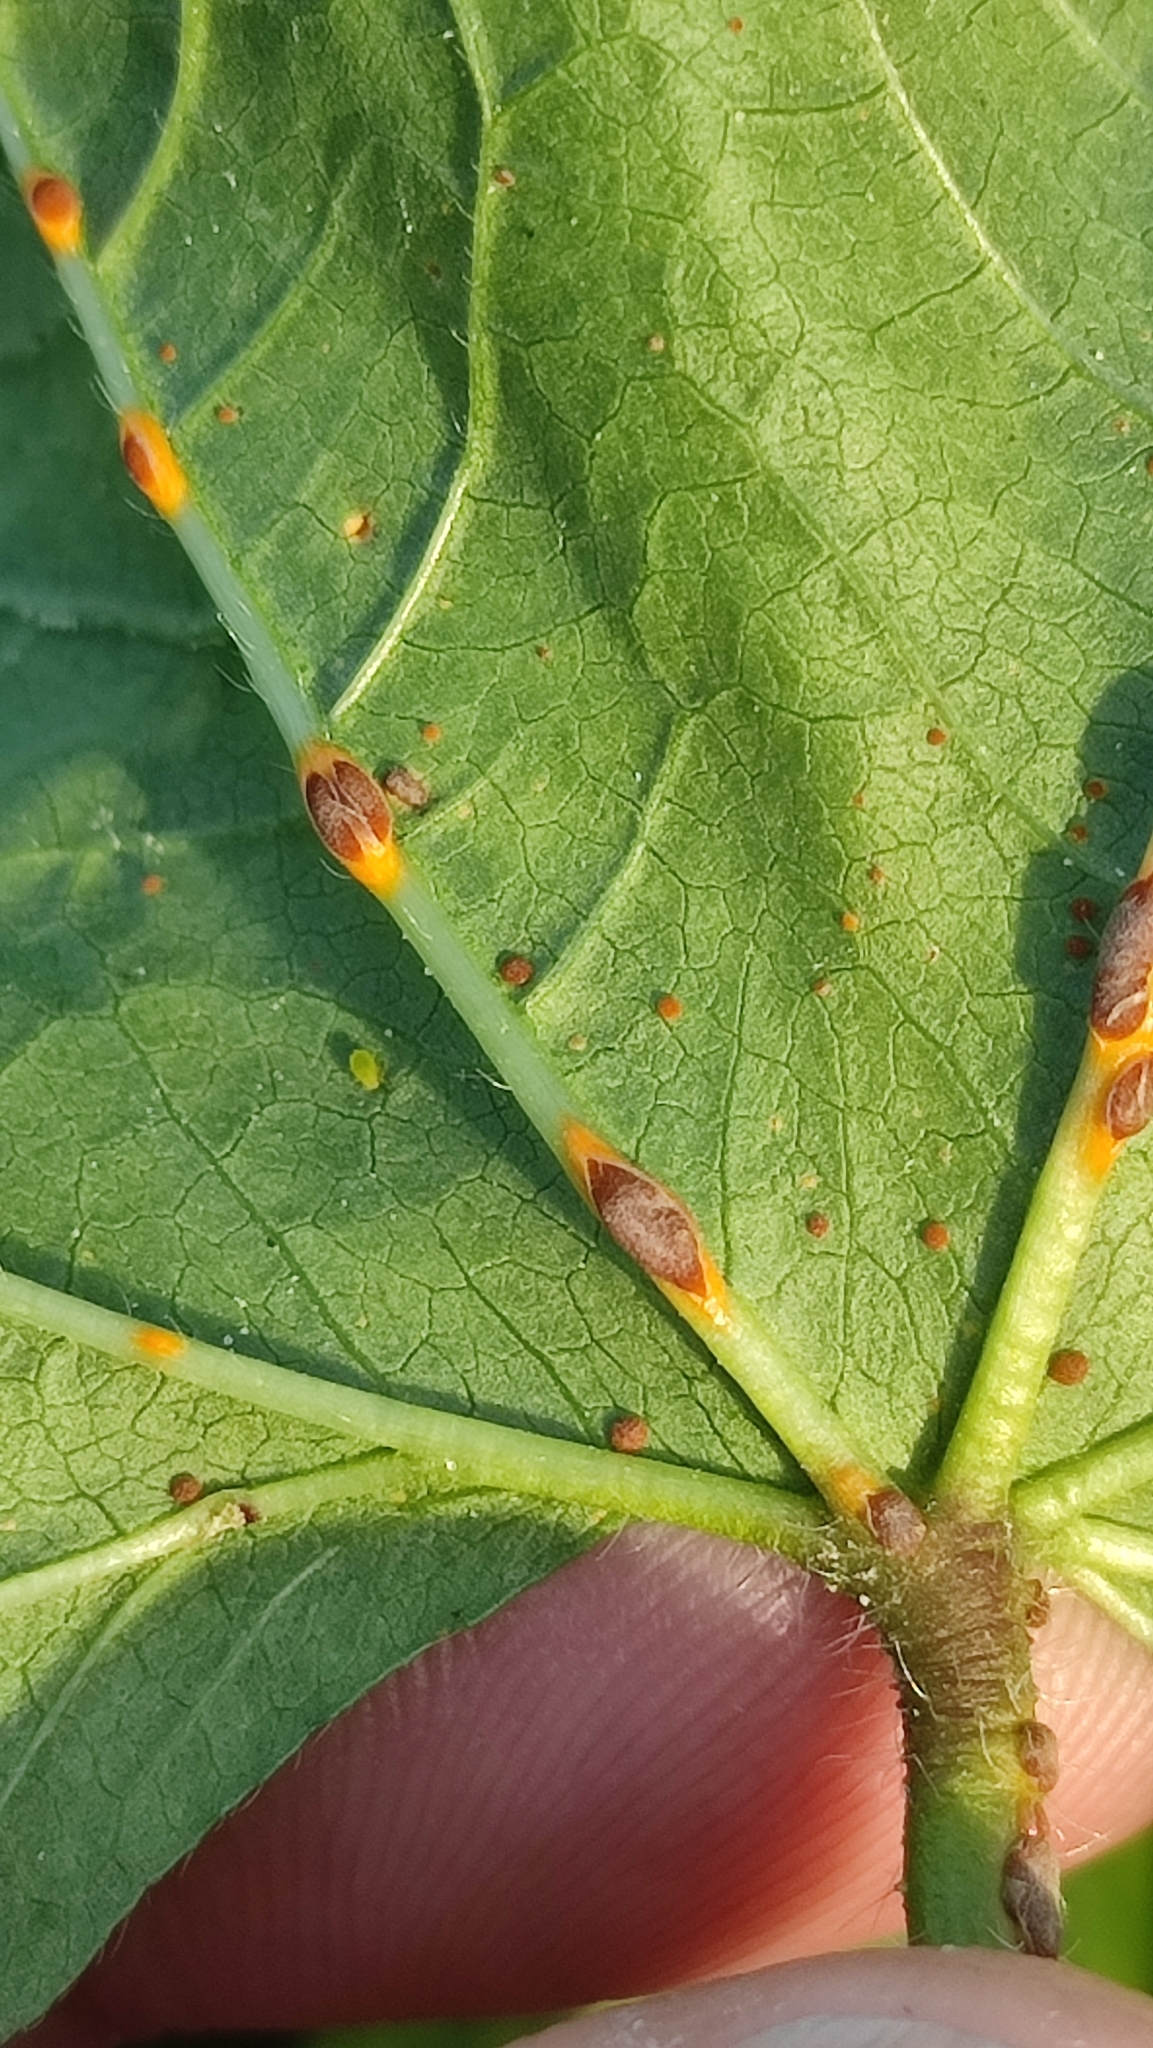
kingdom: Fungi
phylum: Basidiomycota
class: Pucciniomycetes
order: Pucciniales
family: Pucciniaceae
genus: Puccinia
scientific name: Puccinia malvacearum
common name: Hollyhock rust
